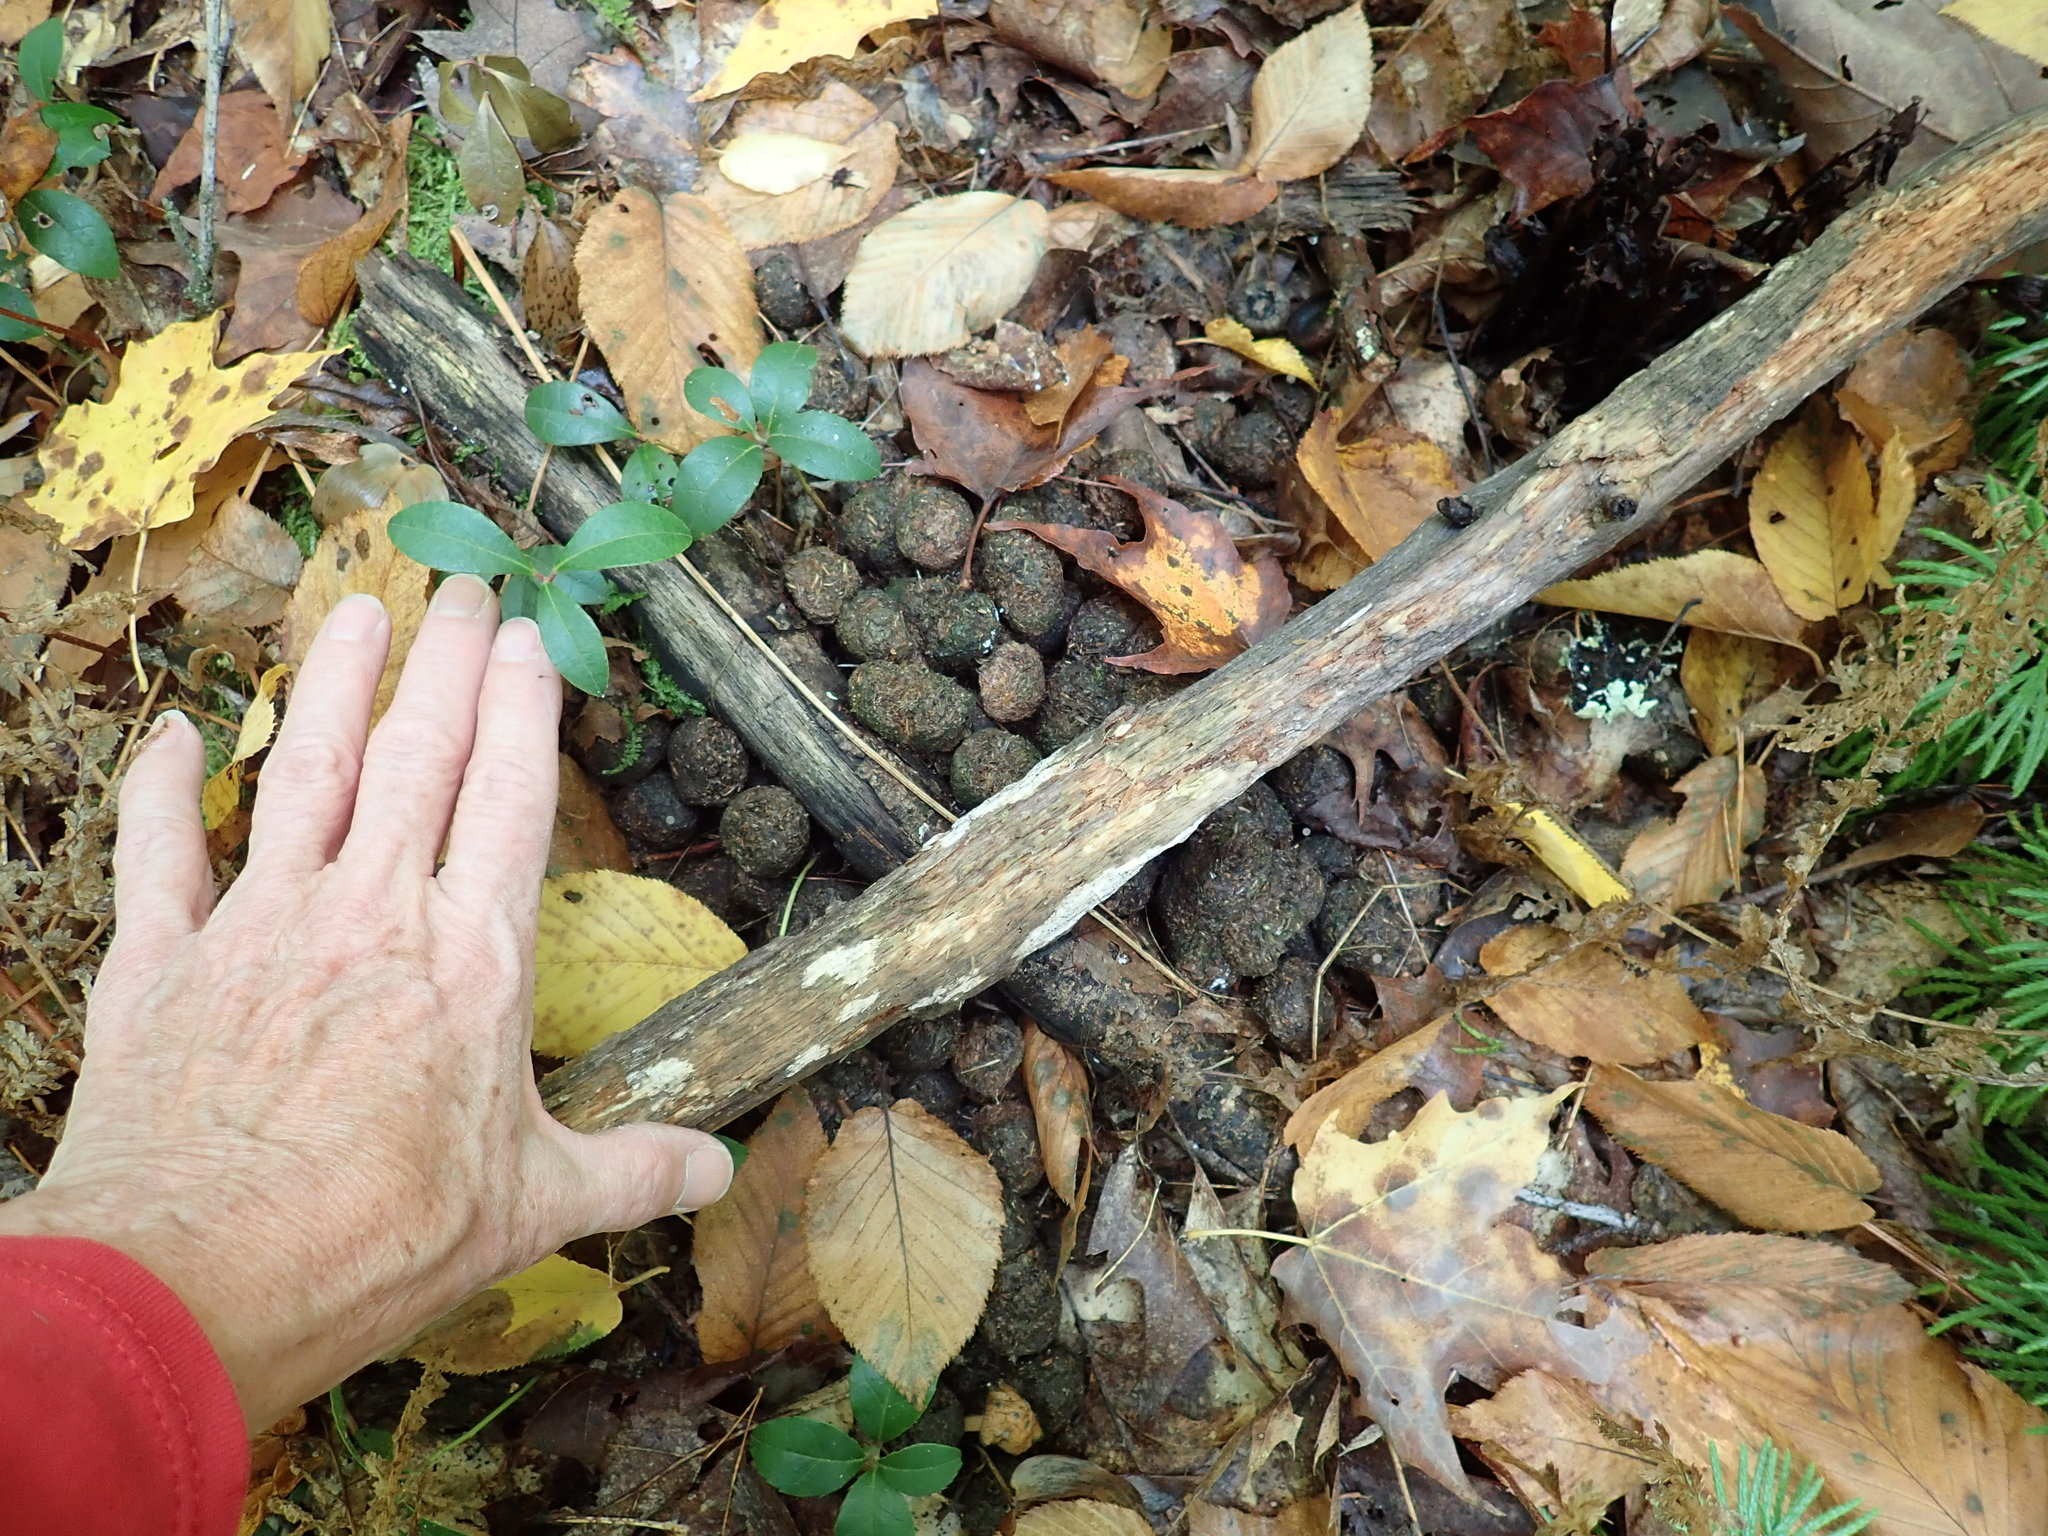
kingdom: Animalia
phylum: Chordata
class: Mammalia
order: Artiodactyla
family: Cervidae
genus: Alces
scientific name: Alces alces
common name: Moose
